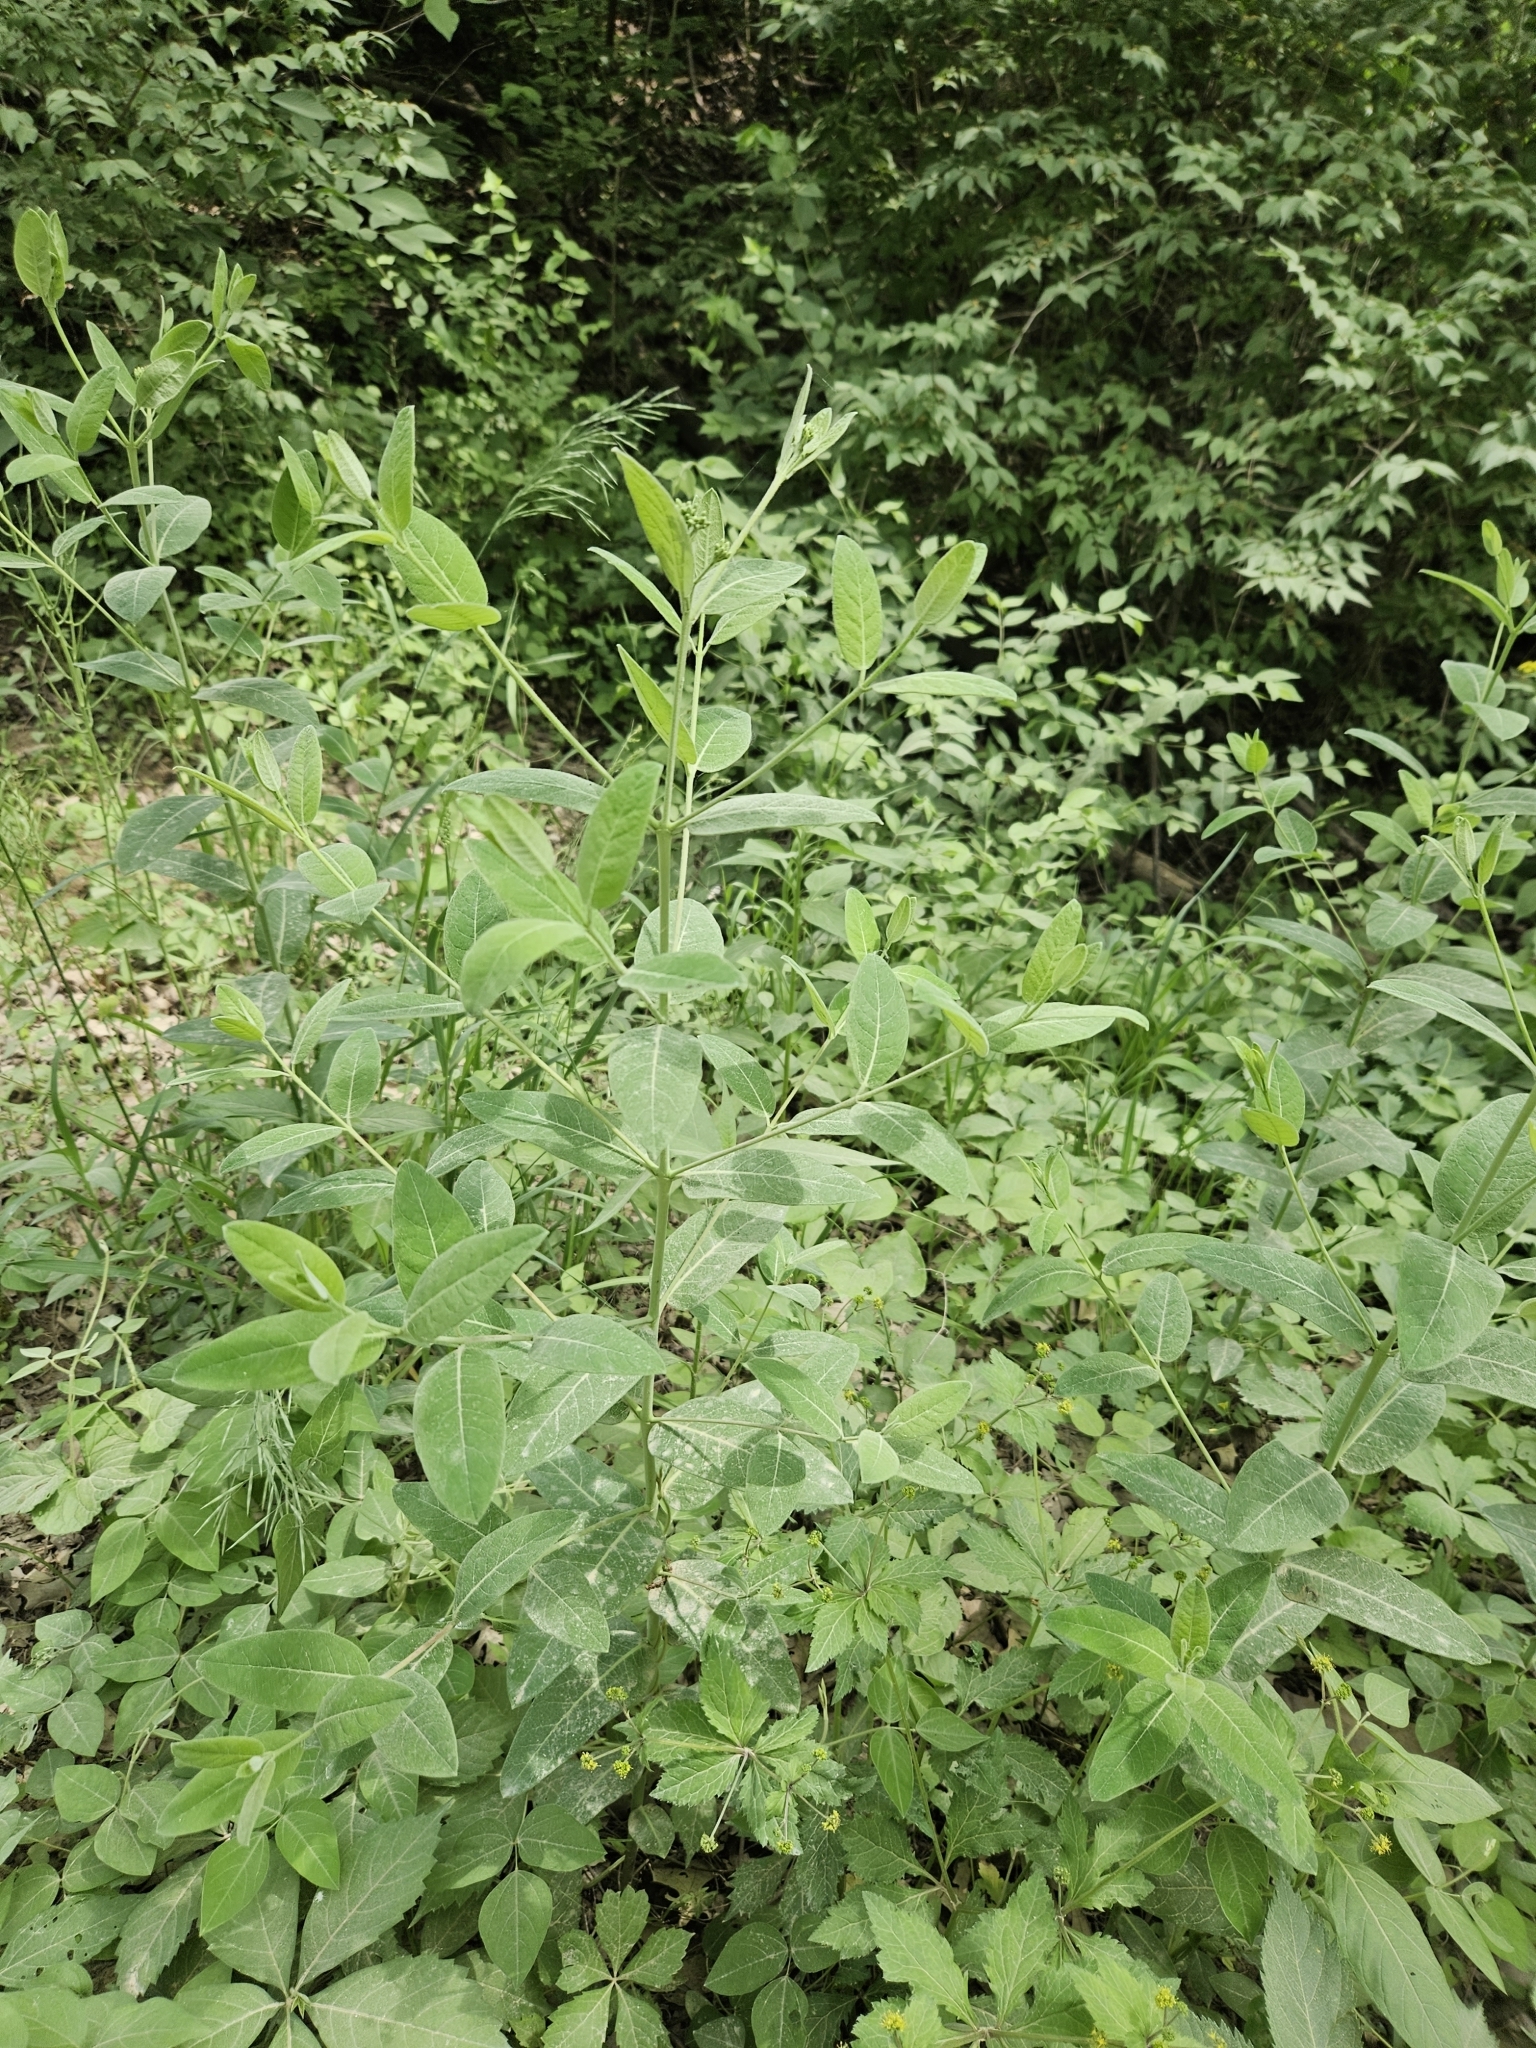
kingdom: Plantae
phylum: Tracheophyta
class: Magnoliopsida
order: Gentianales
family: Apocynaceae
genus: Apocynum
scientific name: Apocynum cannabinum
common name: Hemp dogbane
